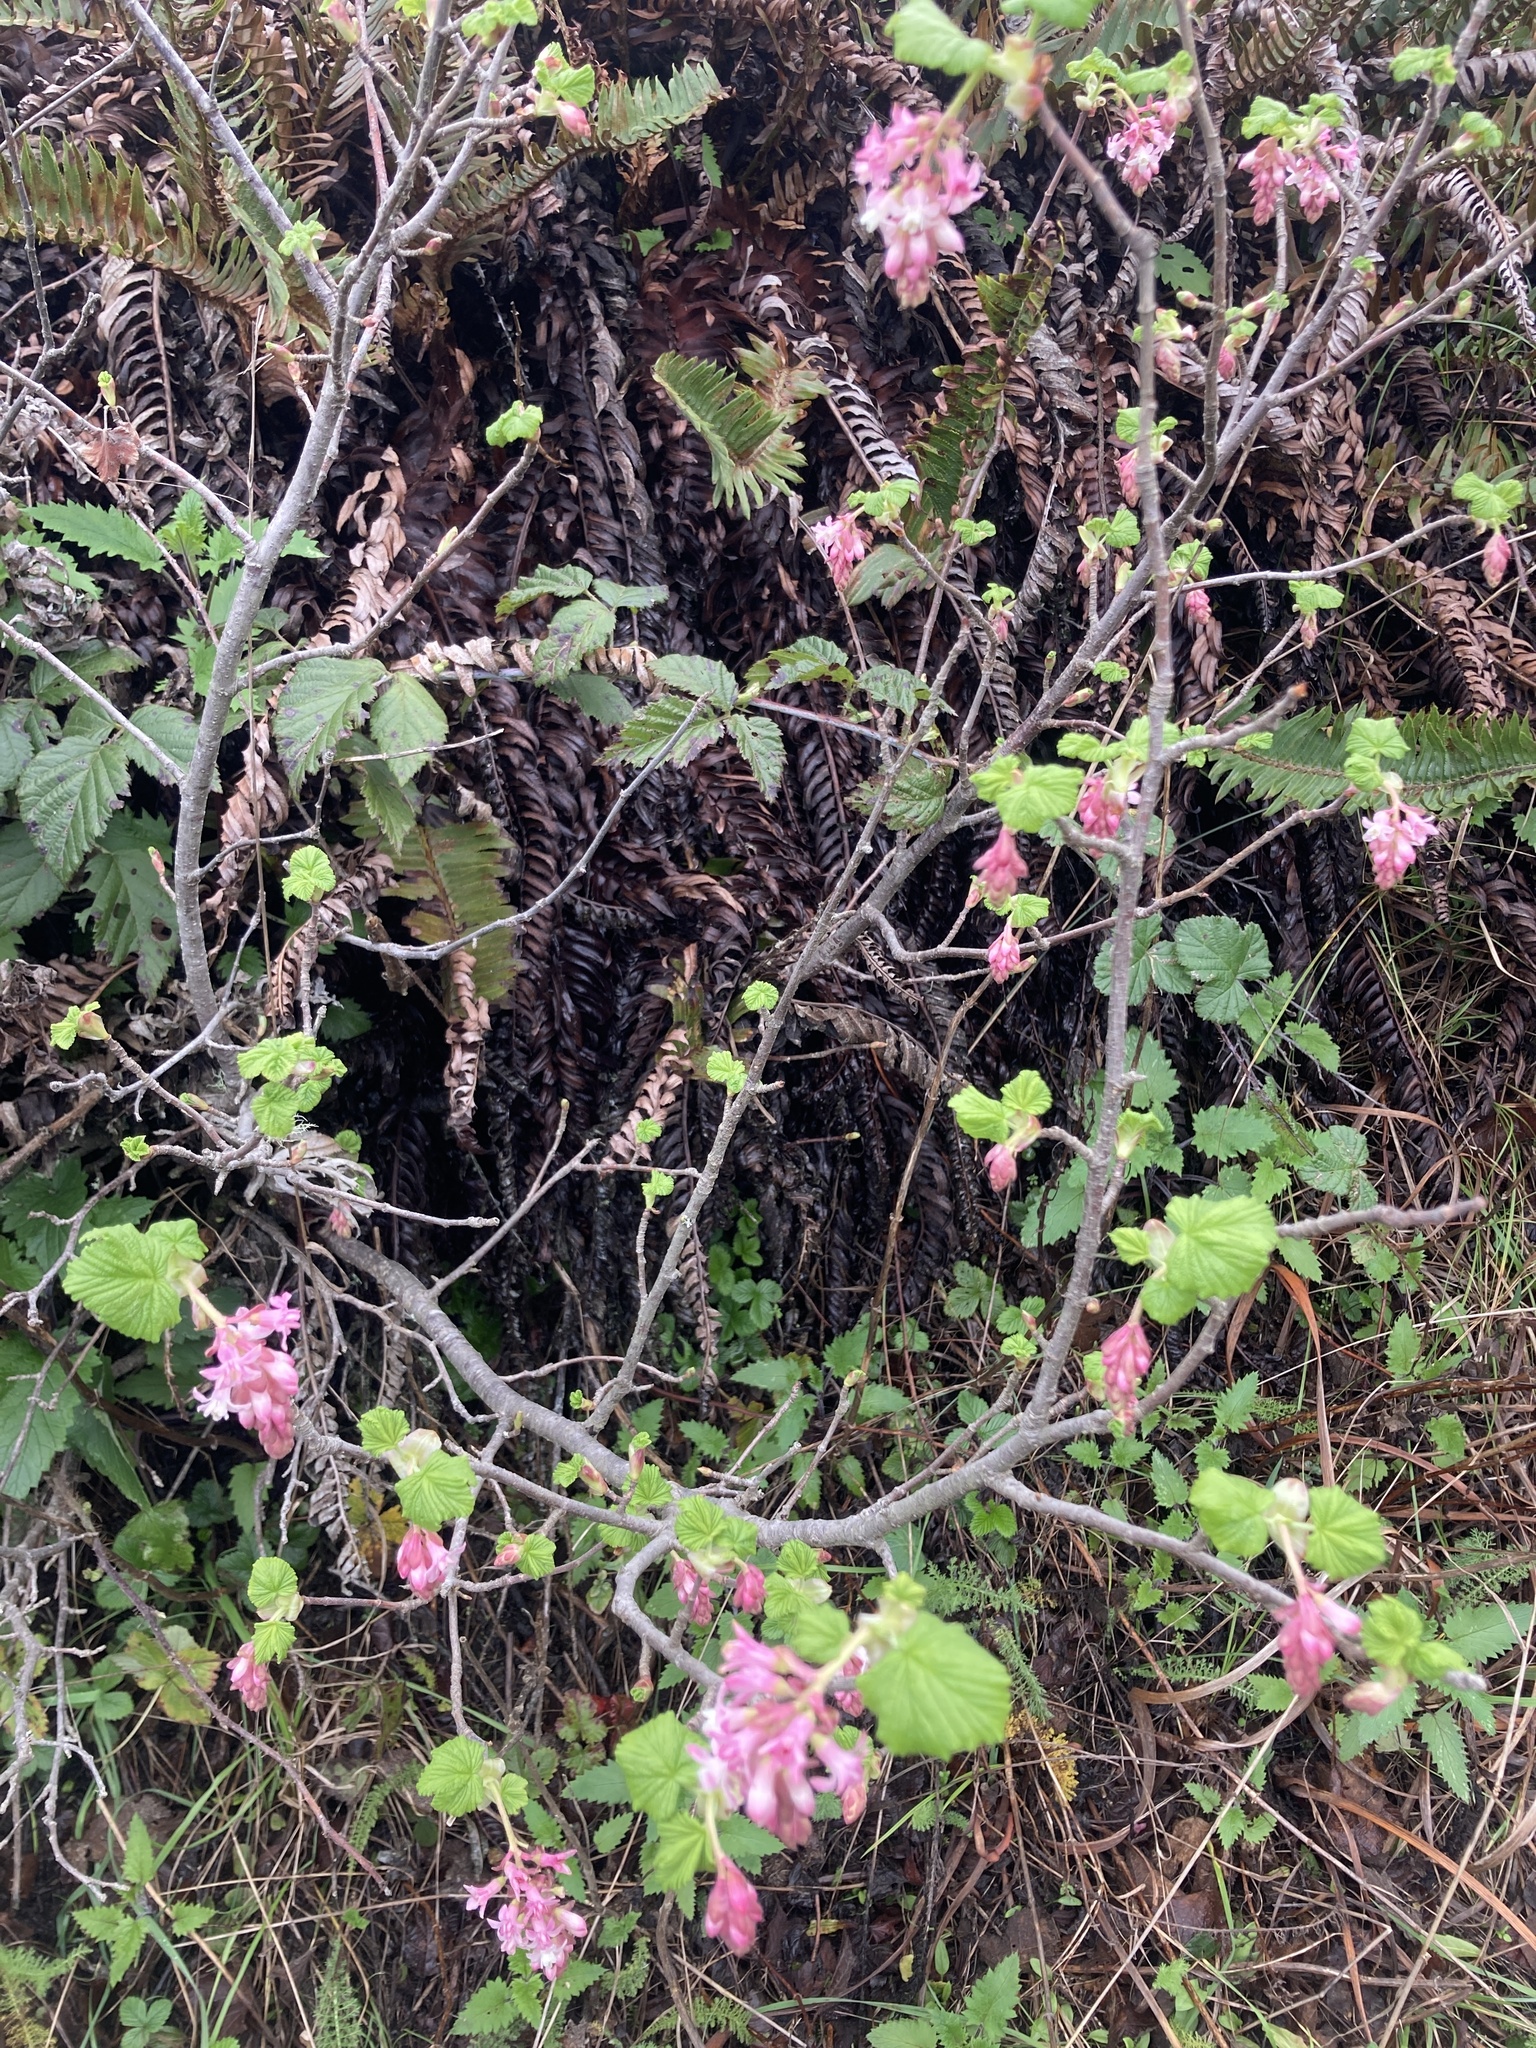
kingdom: Plantae
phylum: Tracheophyta
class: Magnoliopsida
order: Saxifragales
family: Grossulariaceae
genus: Ribes
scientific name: Ribes sanguineum
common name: Flowering currant
